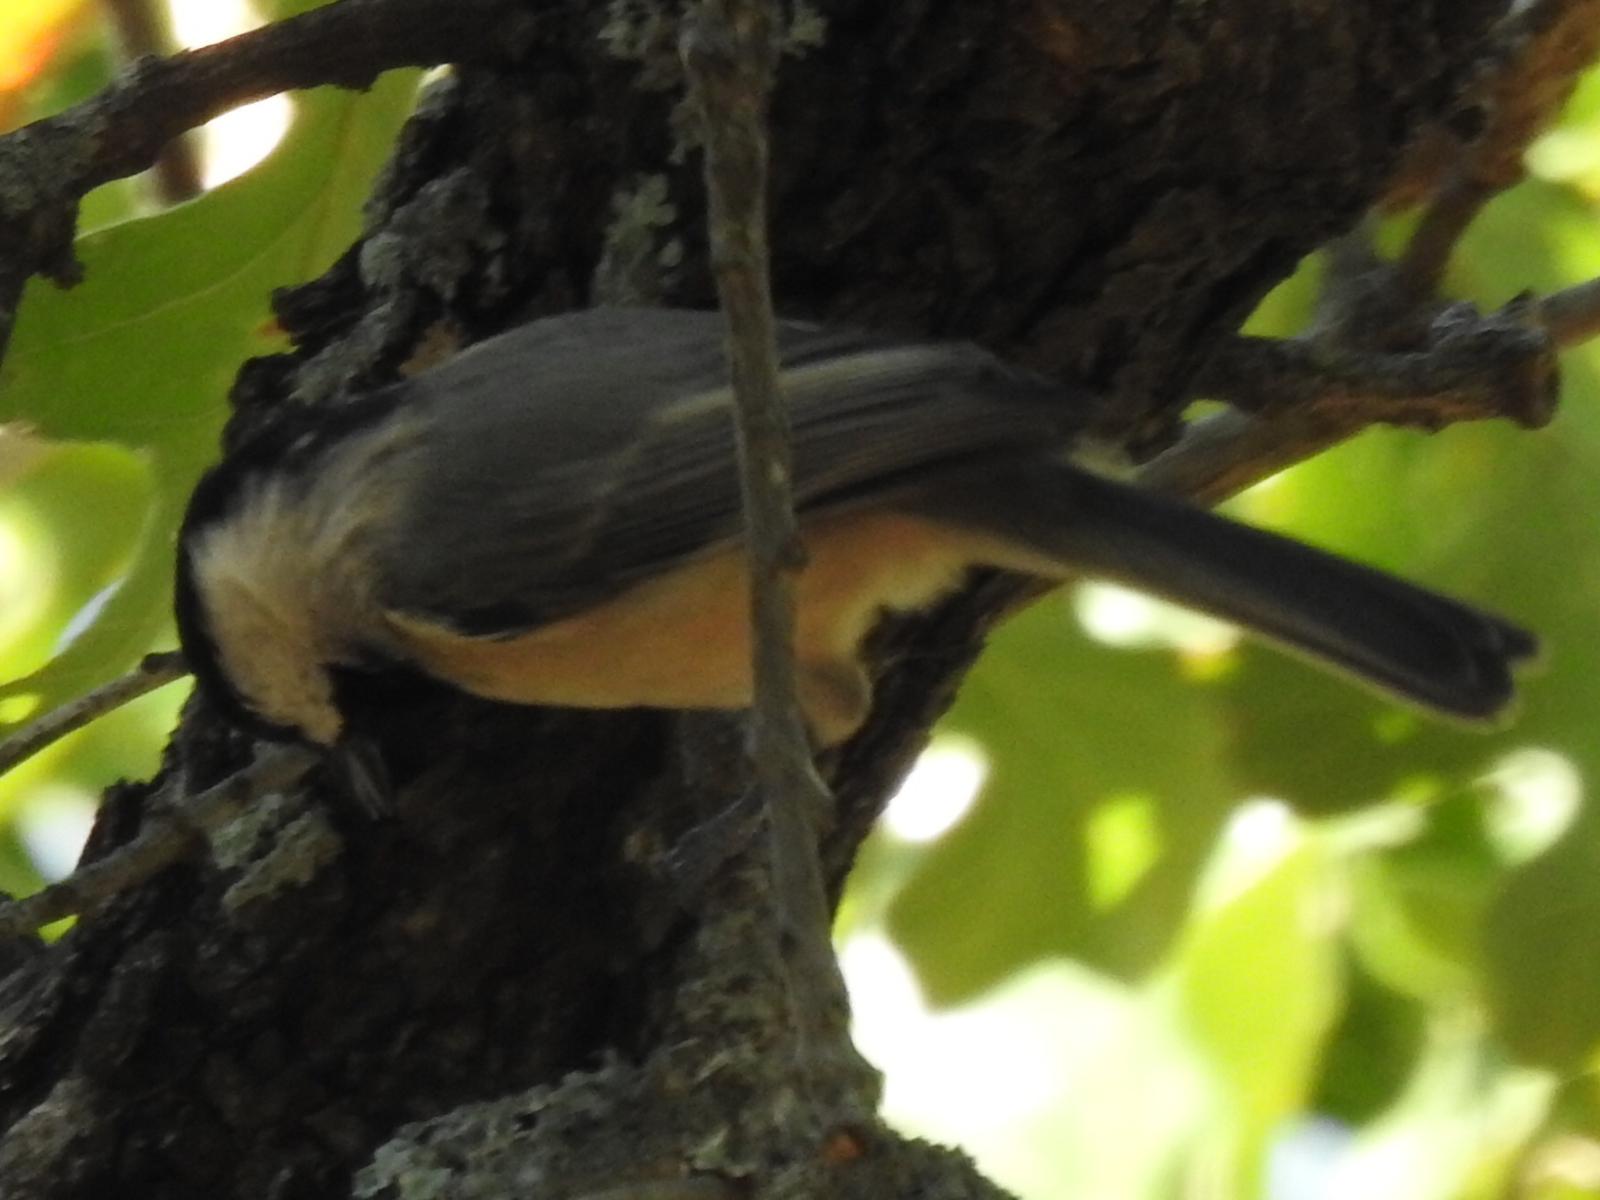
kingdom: Animalia
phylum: Chordata
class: Aves
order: Passeriformes
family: Paridae
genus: Poecile
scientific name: Poecile carolinensis
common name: Carolina chickadee
